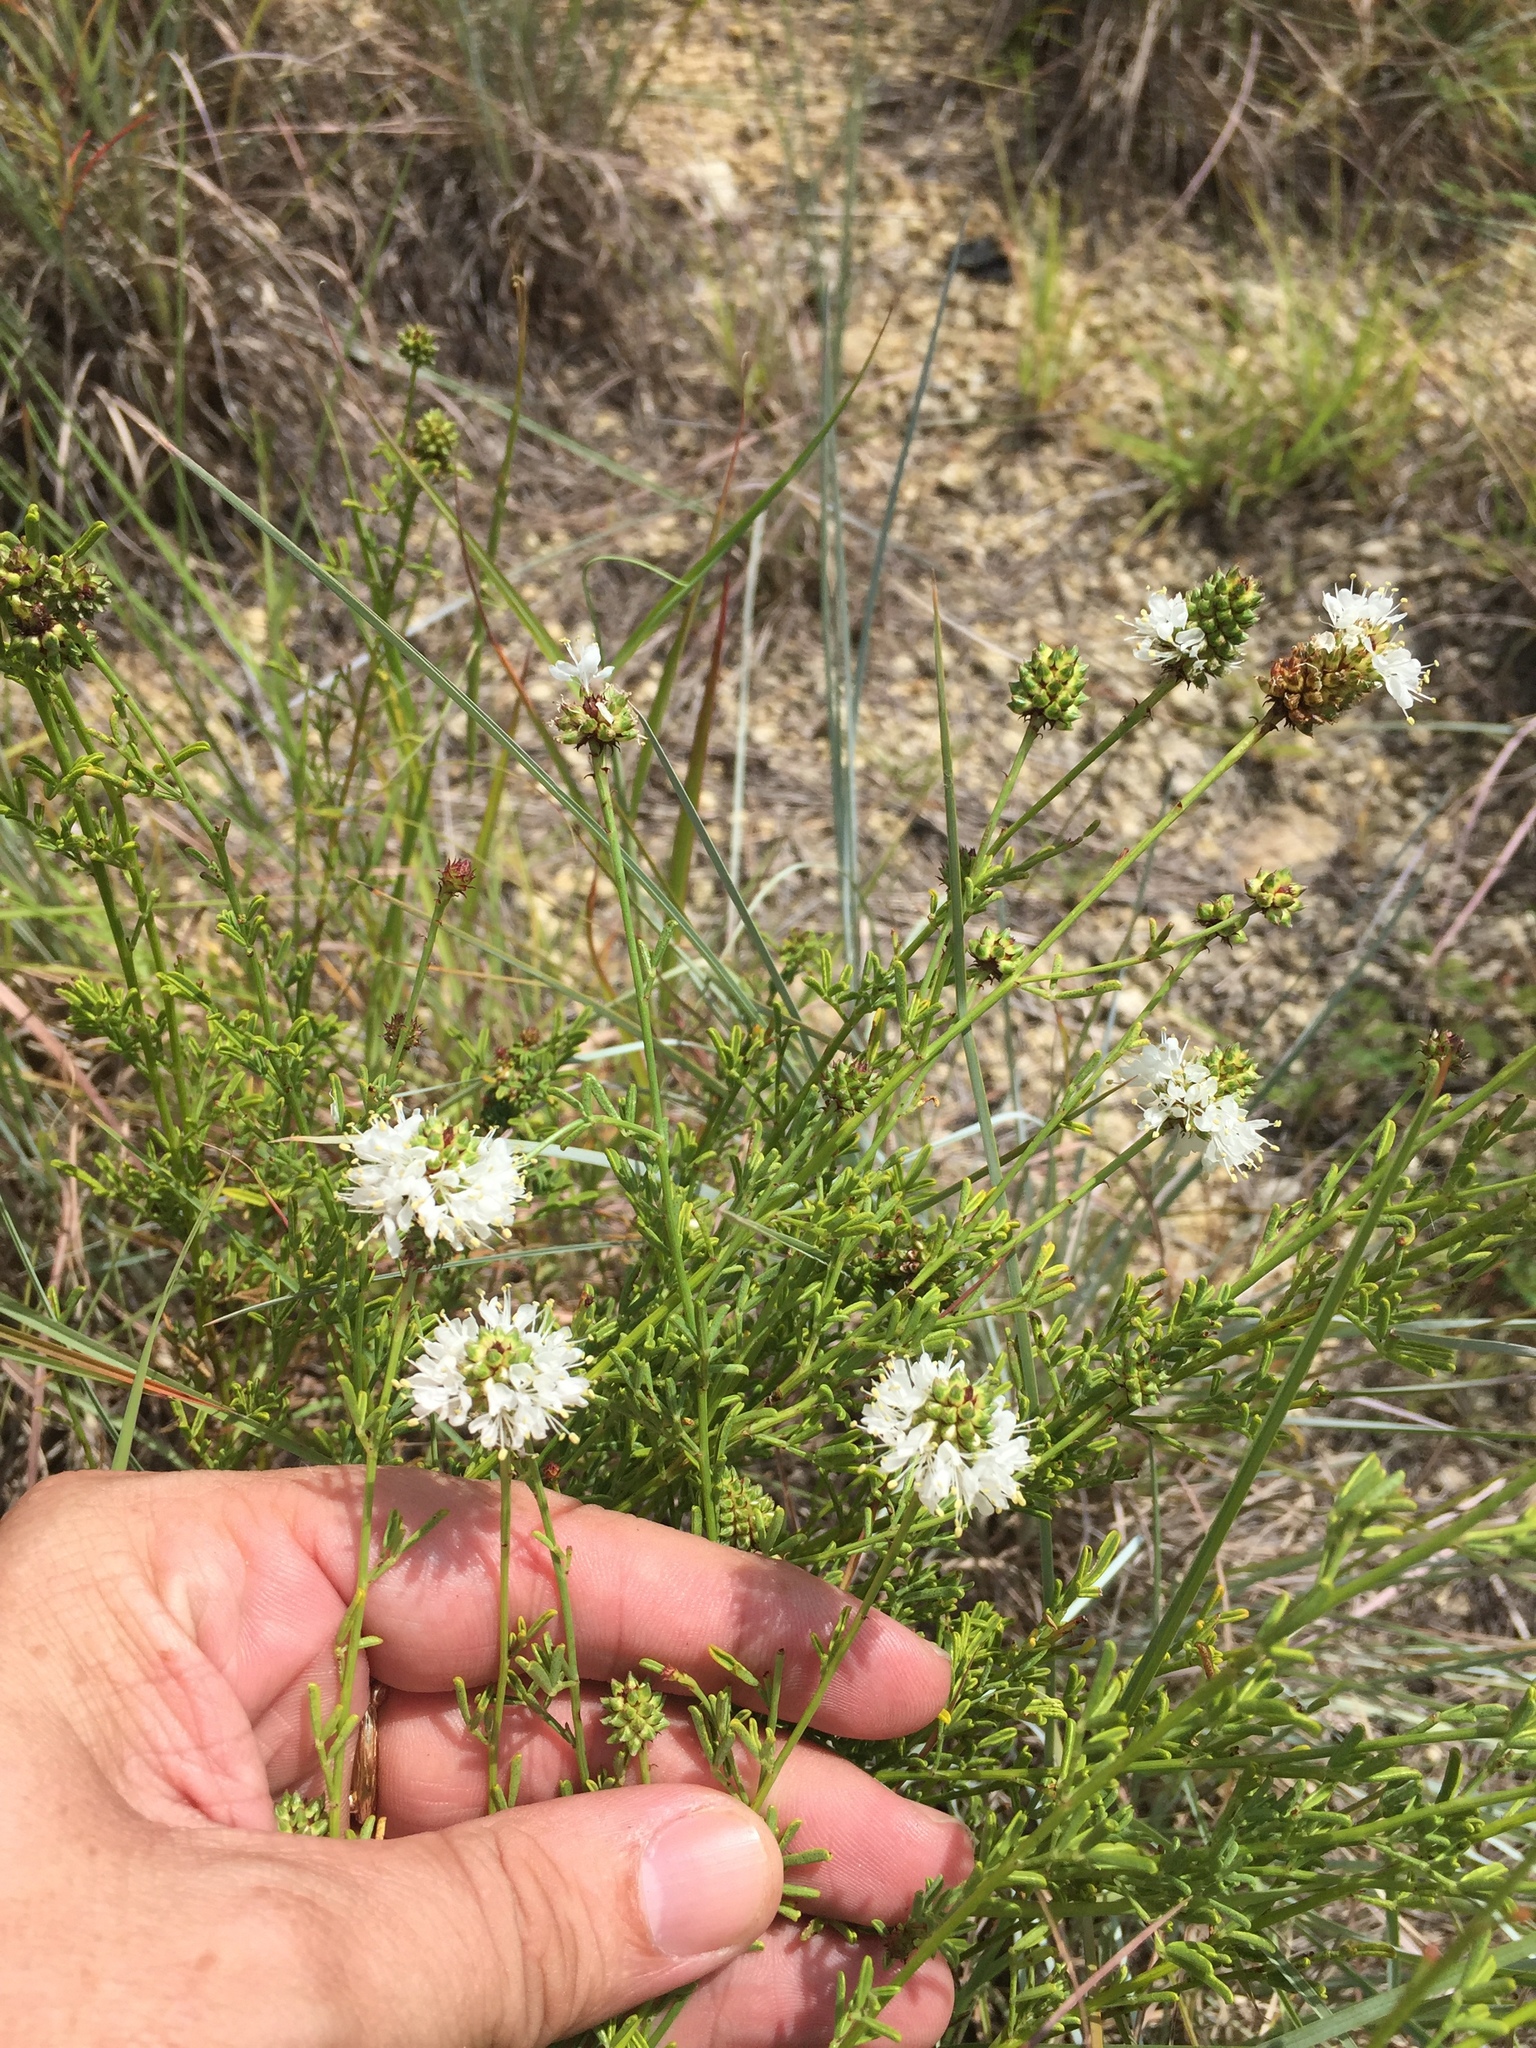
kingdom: Plantae
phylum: Tracheophyta
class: Magnoliopsida
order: Fabales
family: Fabaceae
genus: Dalea
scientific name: Dalea multiflora
